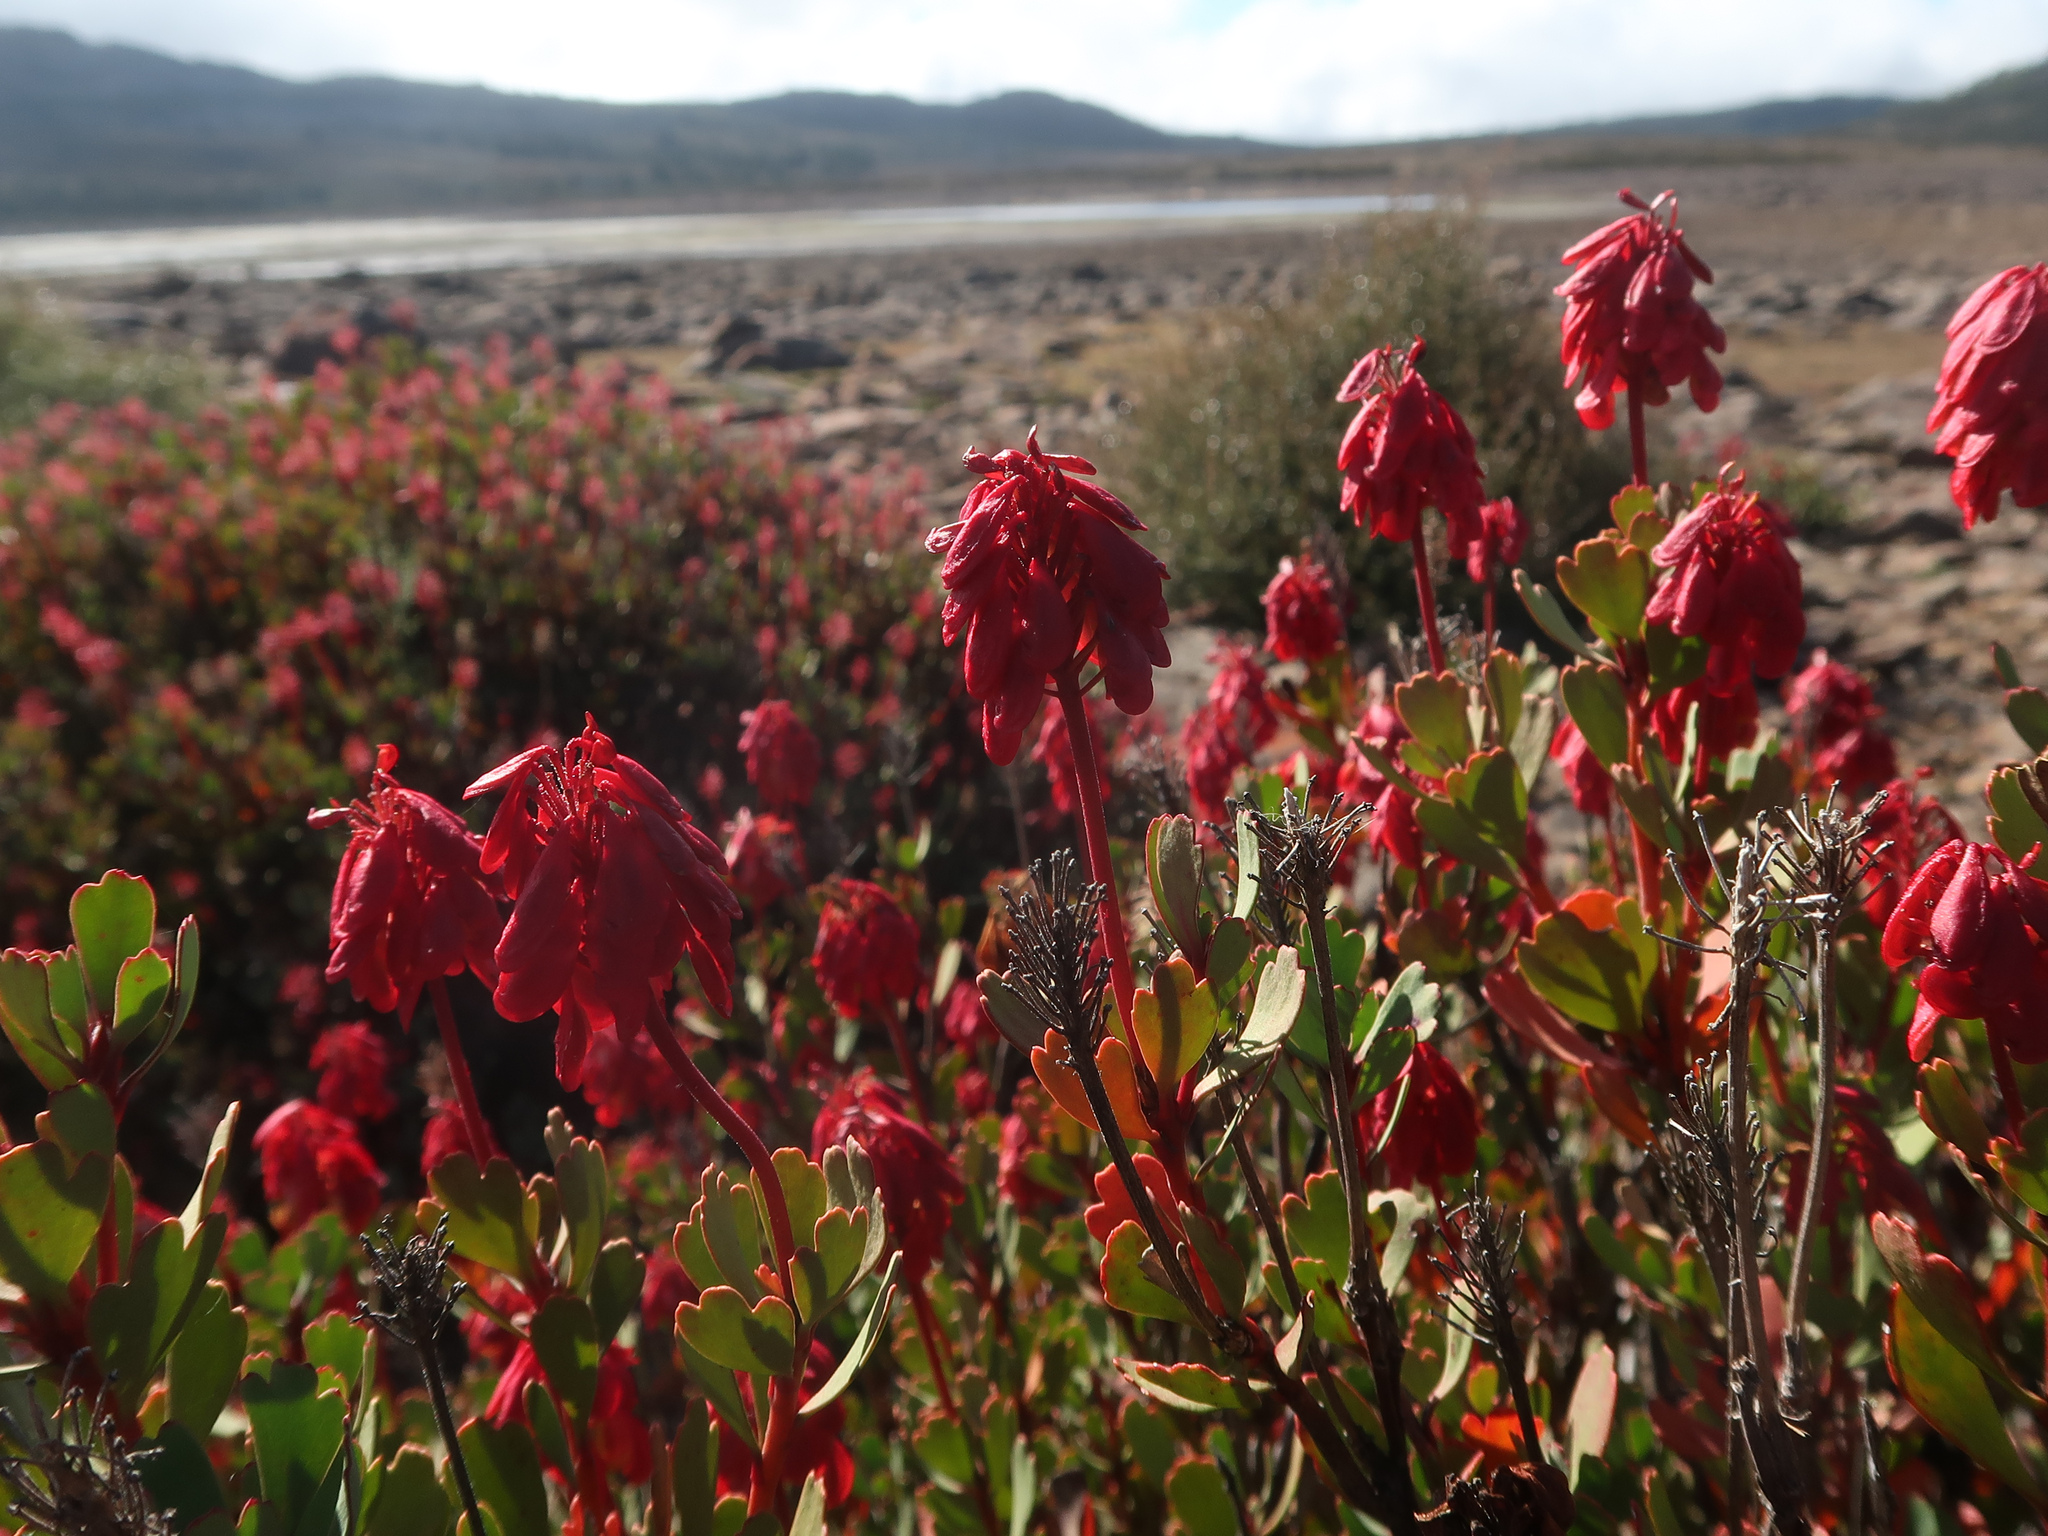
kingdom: Plantae
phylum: Tracheophyta
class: Magnoliopsida
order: Proteales
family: Proteaceae
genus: Bellendena
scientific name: Bellendena montana
